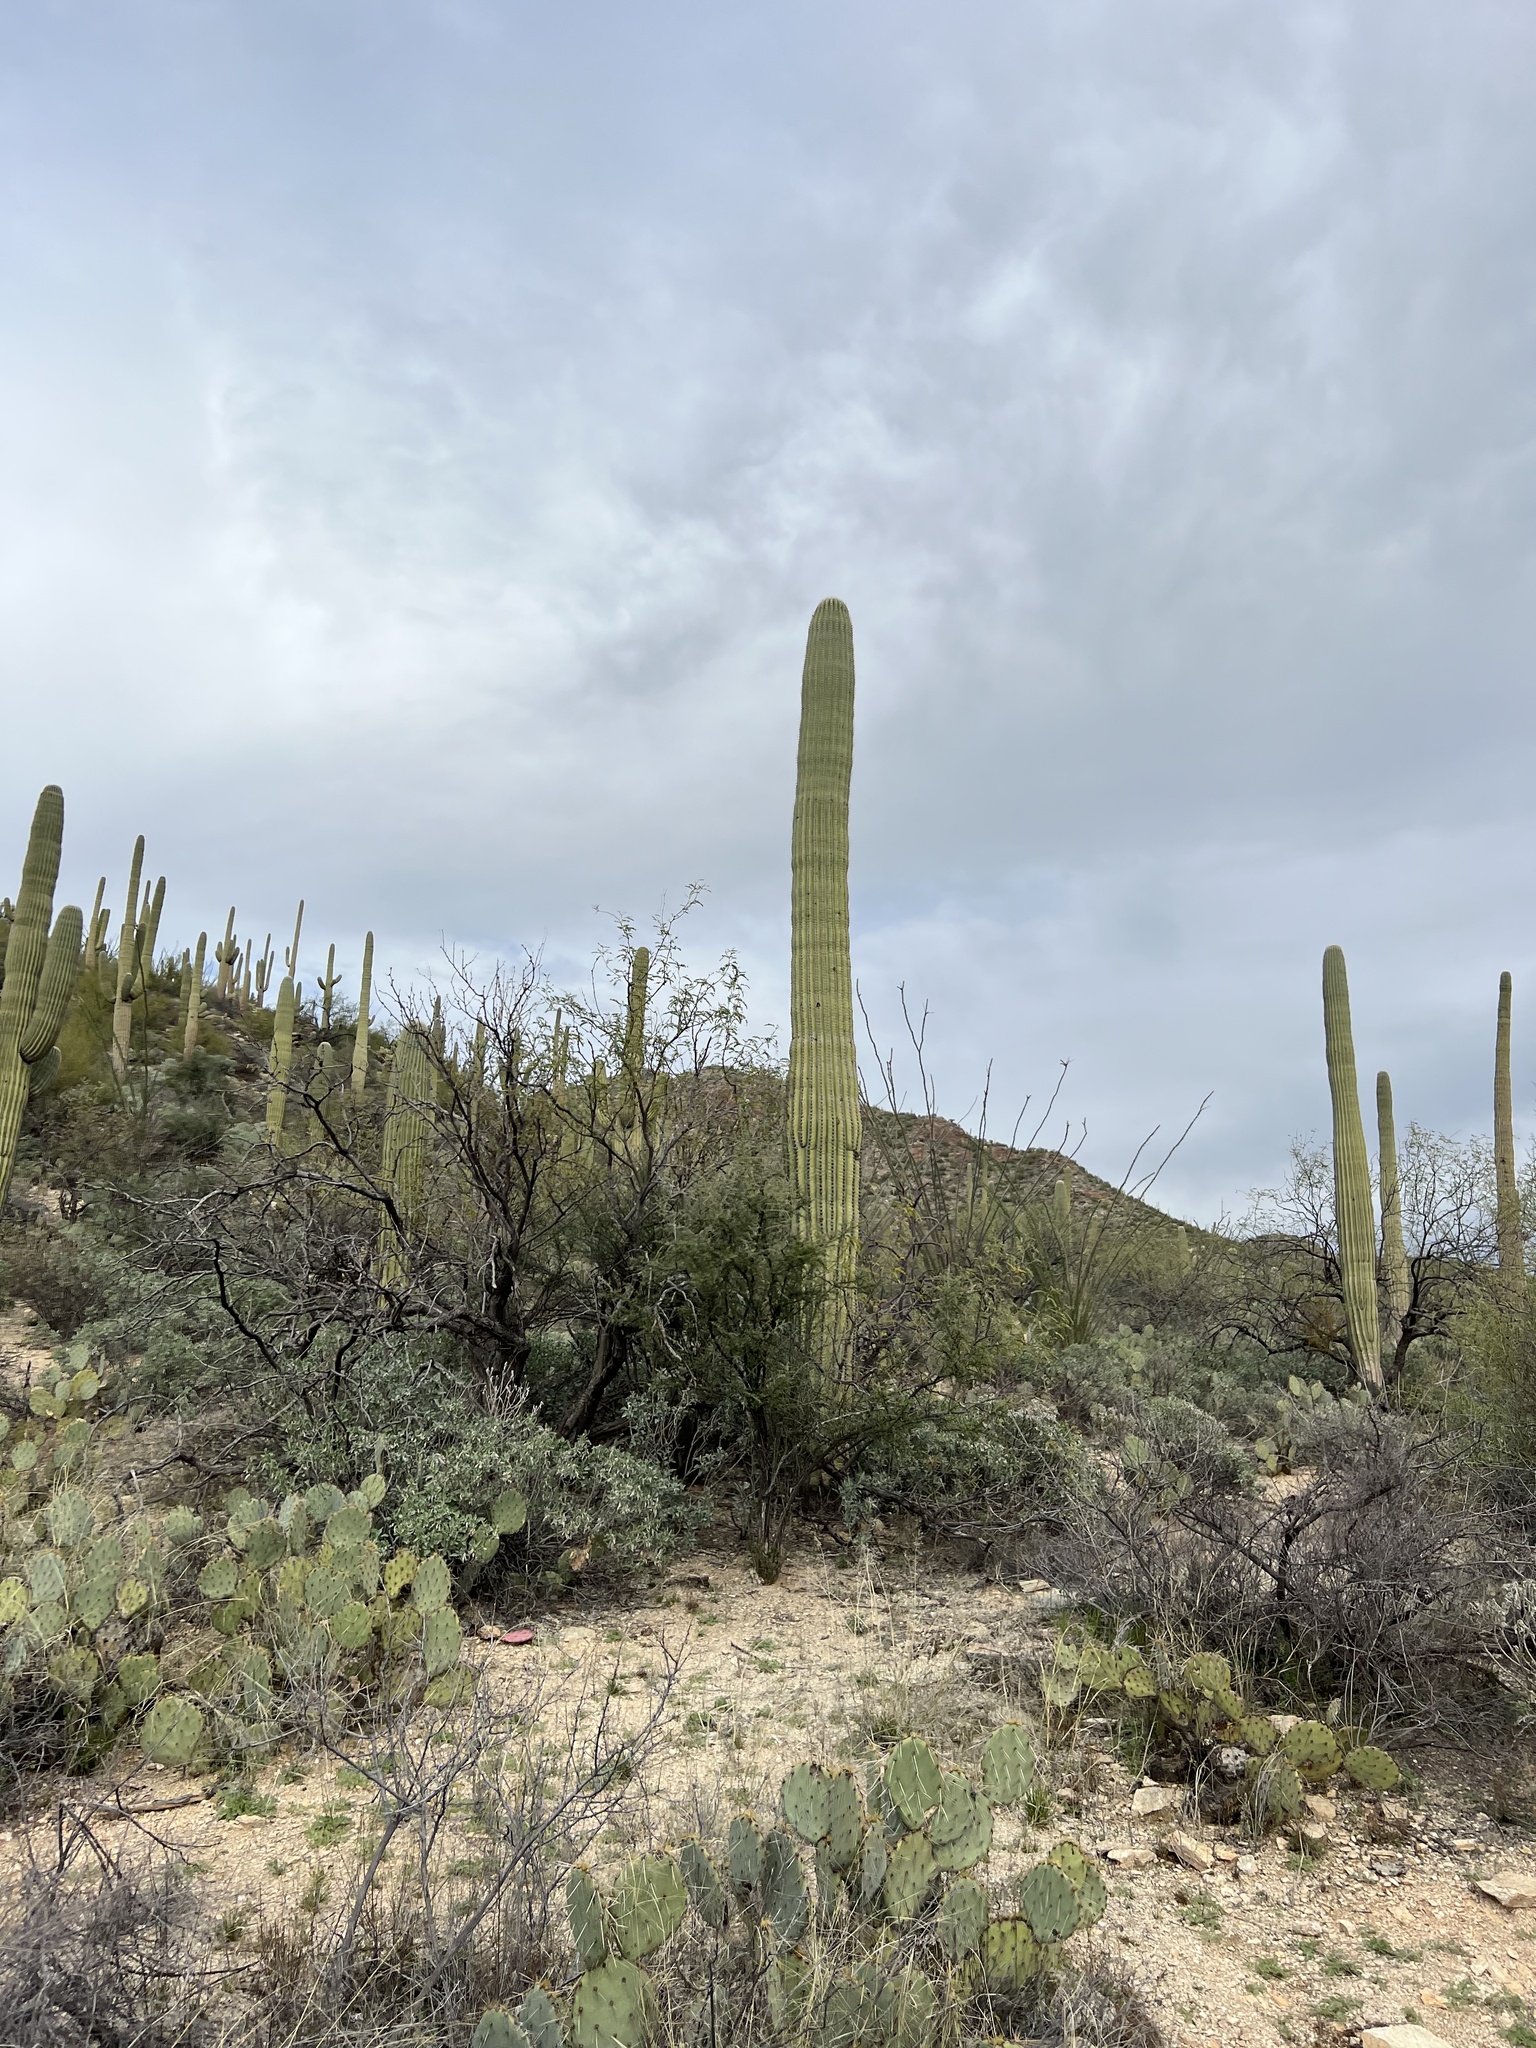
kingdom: Plantae
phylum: Tracheophyta
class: Magnoliopsida
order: Caryophyllales
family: Cactaceae
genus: Carnegiea
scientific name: Carnegiea gigantea
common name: Saguaro
